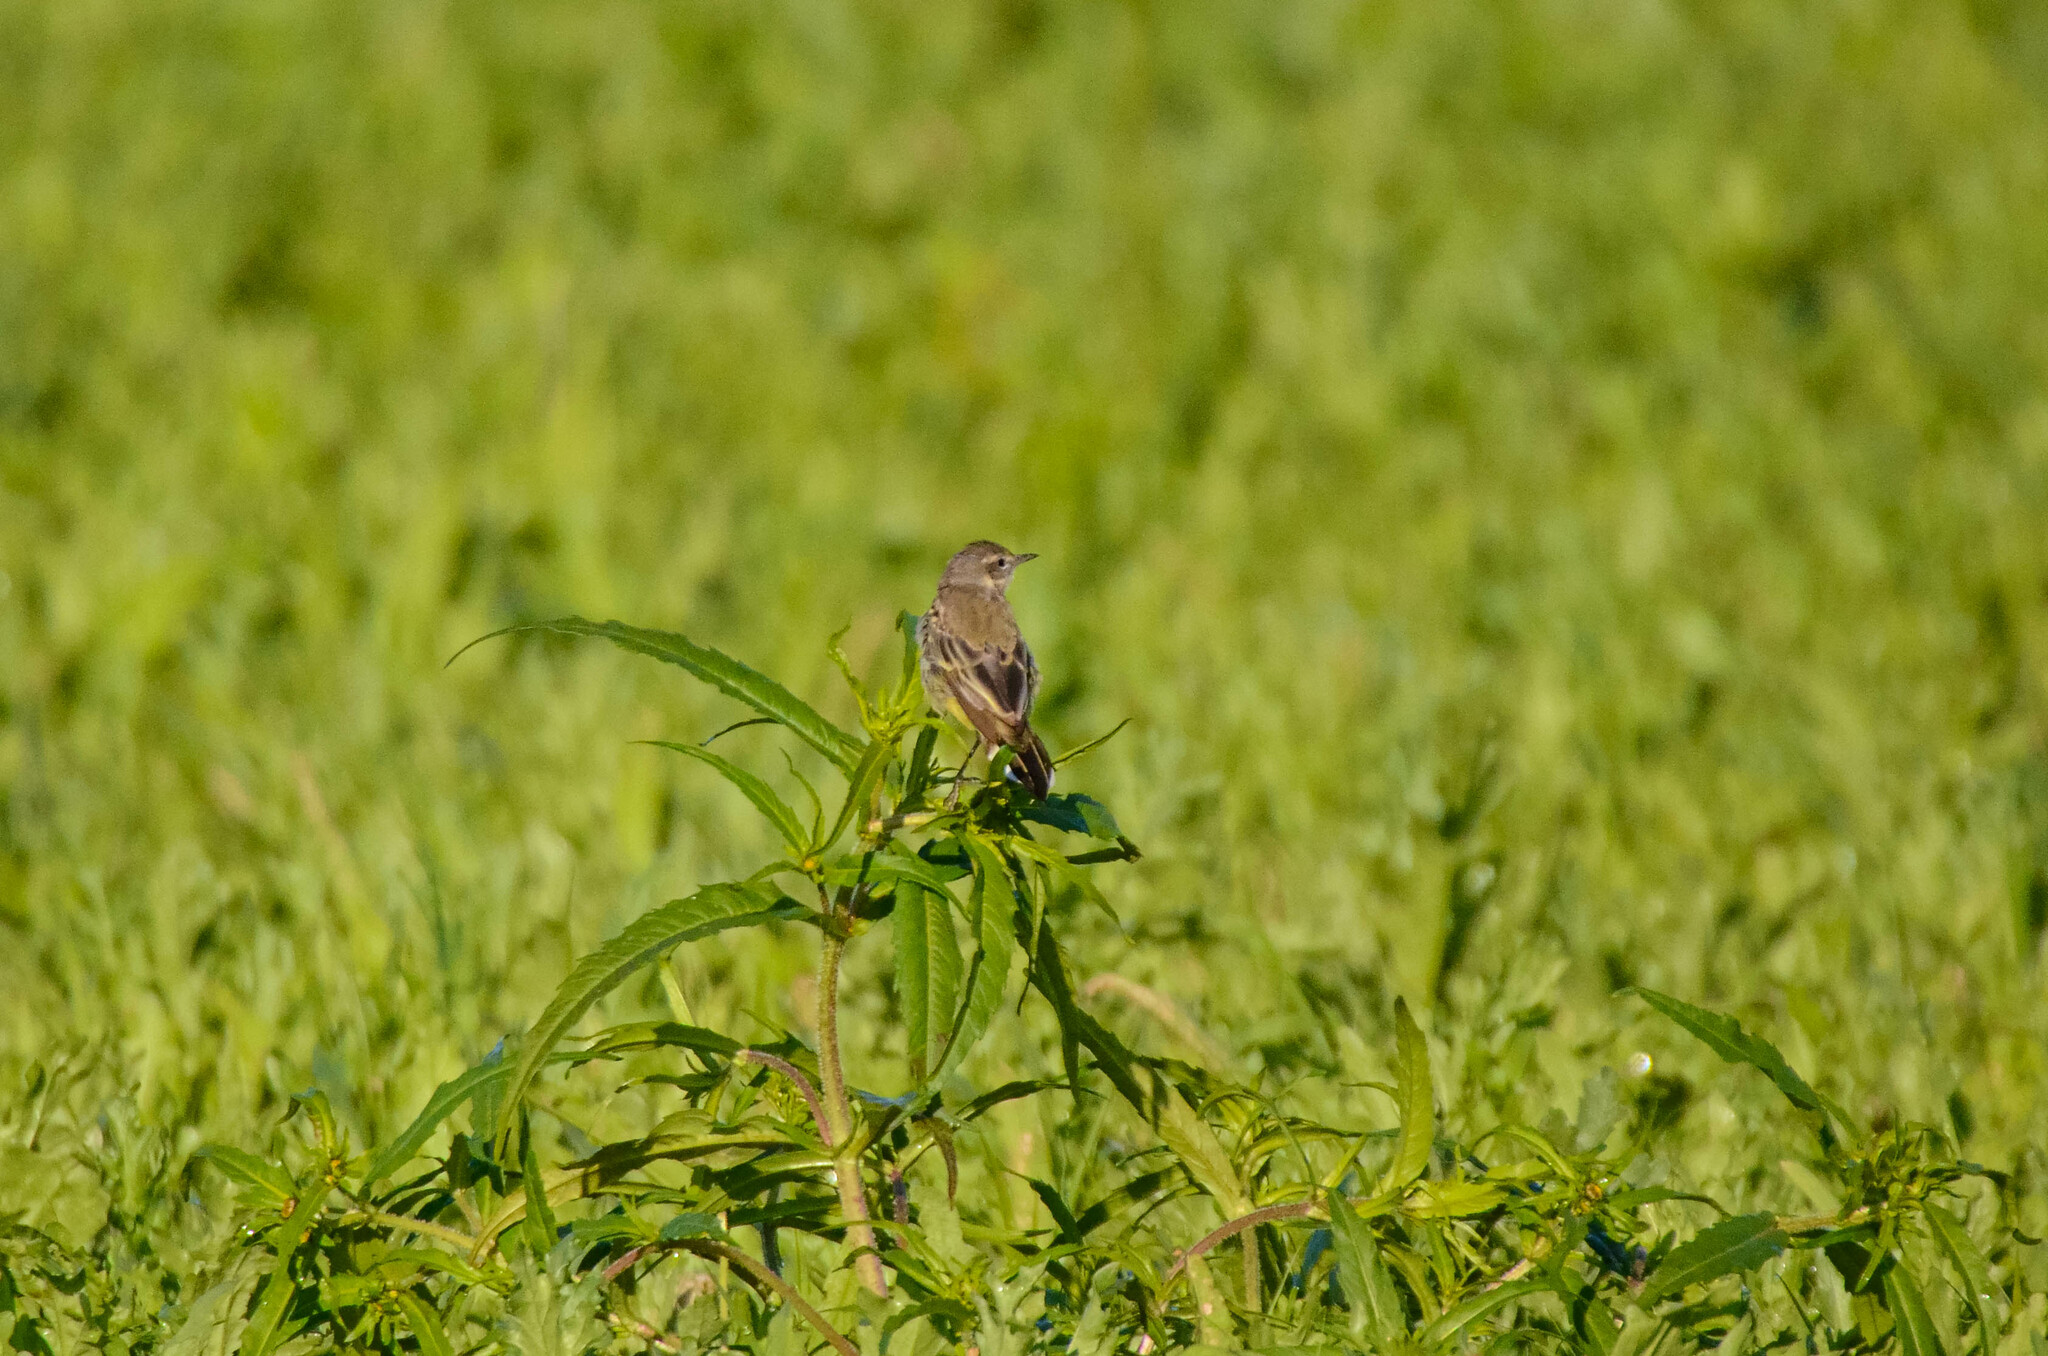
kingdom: Animalia
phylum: Chordata
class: Aves
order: Passeriformes
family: Motacillidae
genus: Motacilla
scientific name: Motacilla flava
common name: Western yellow wagtail
